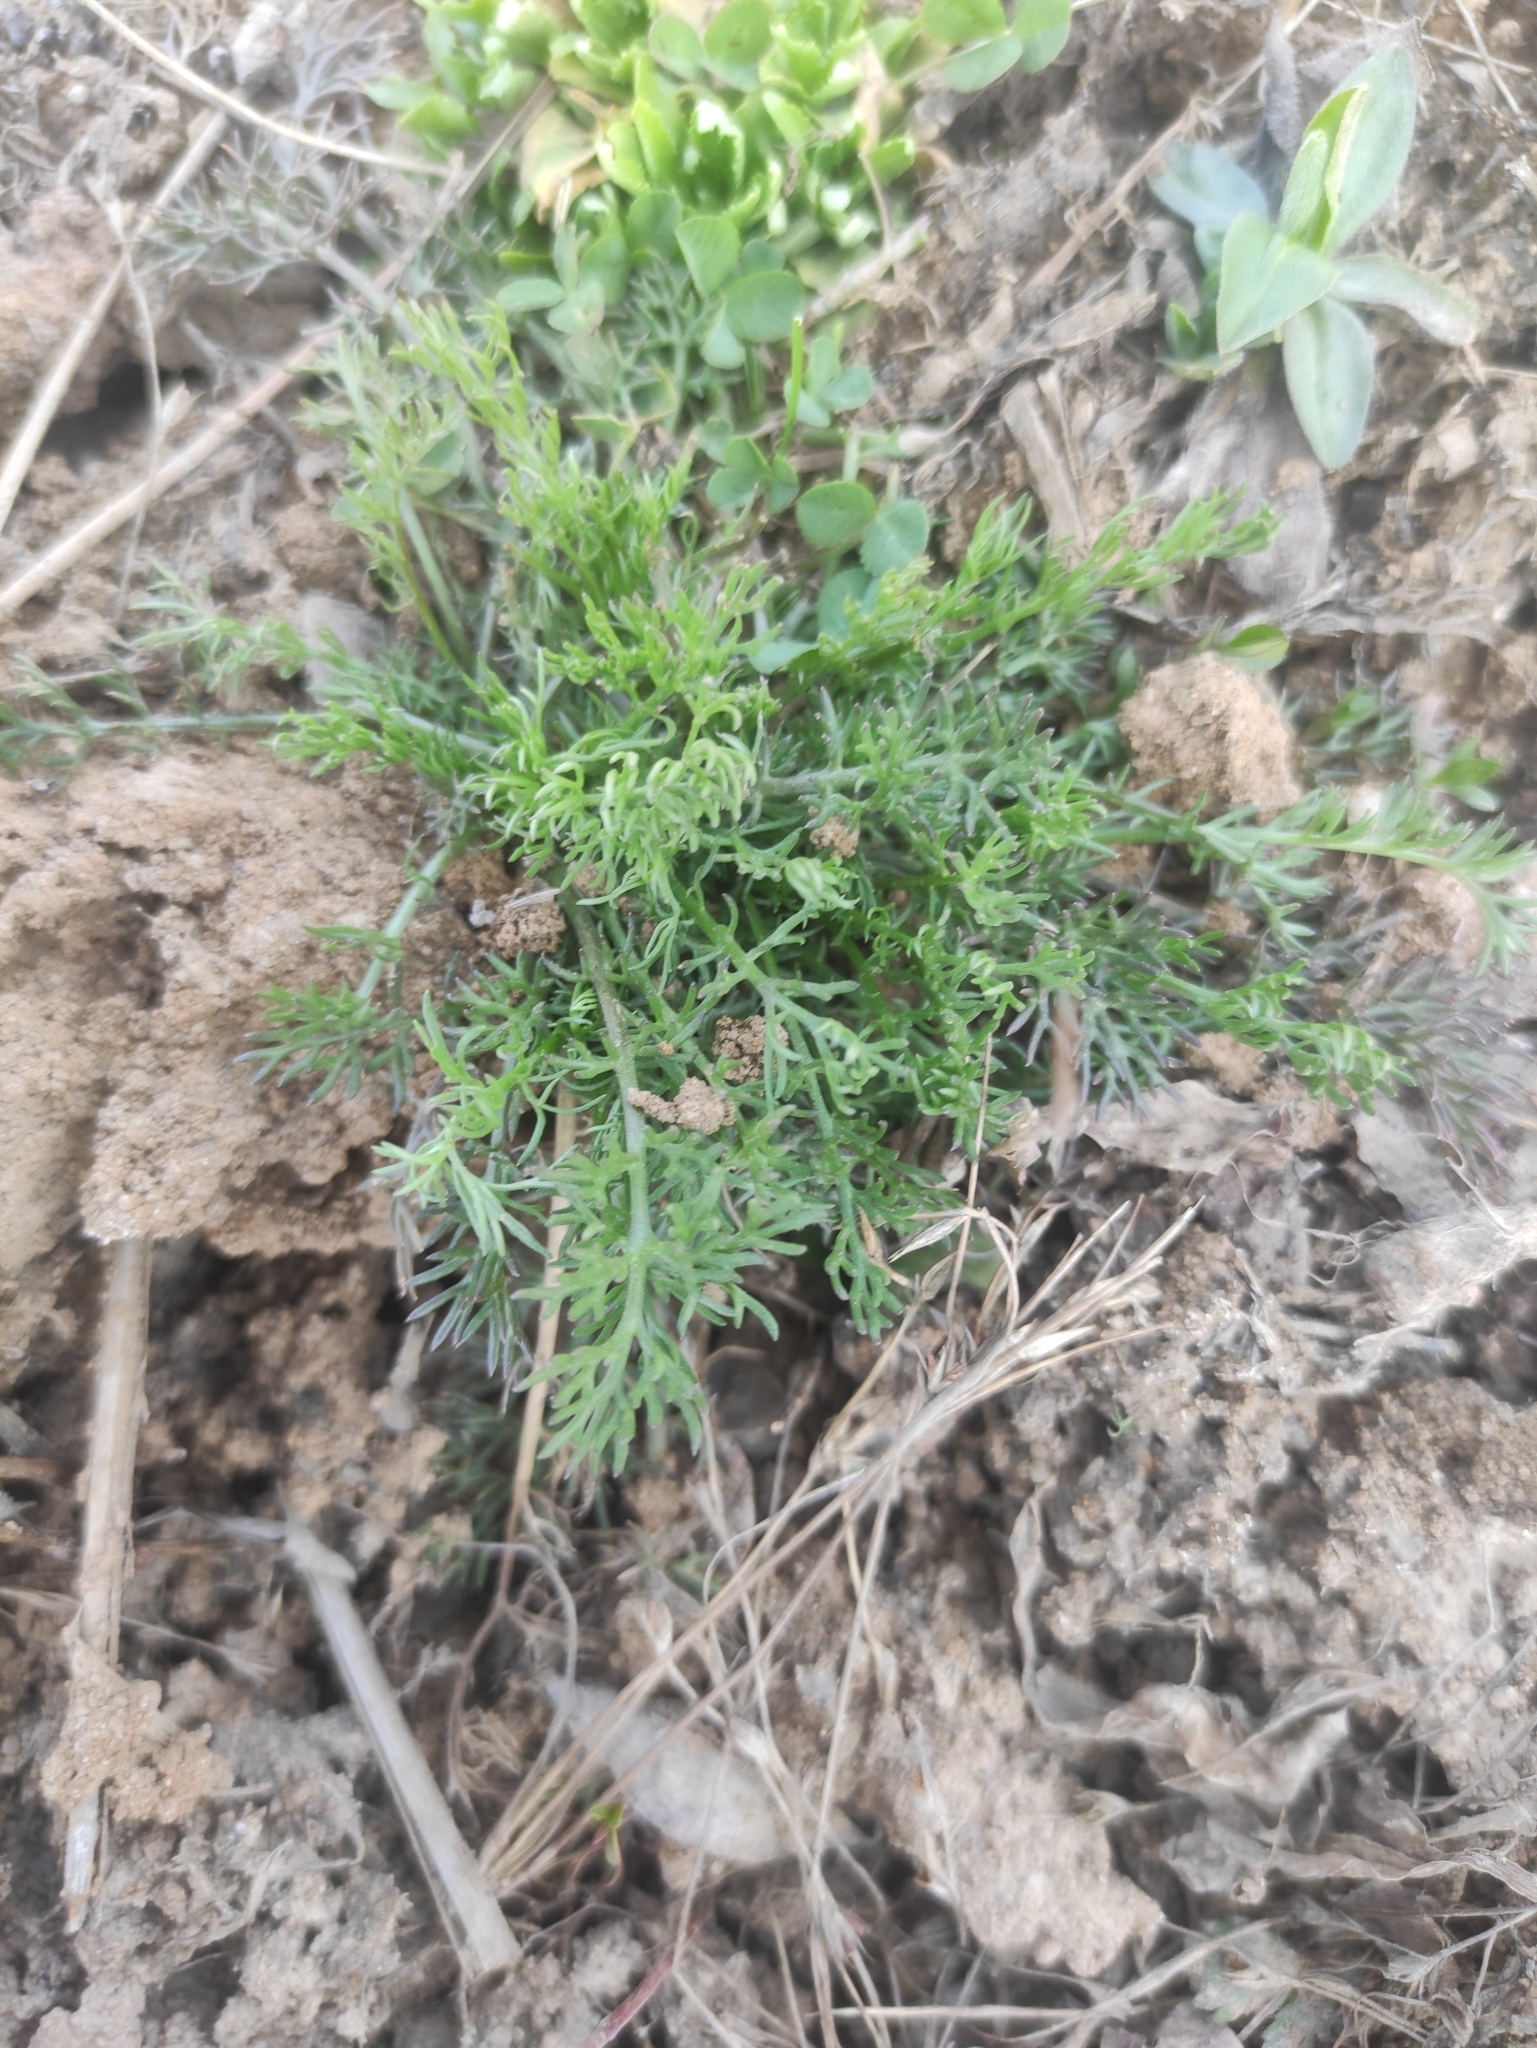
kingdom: Plantae
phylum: Tracheophyta
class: Magnoliopsida
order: Asterales
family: Asteraceae
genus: Tripleurospermum
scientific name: Tripleurospermum inodorum
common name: Scentless mayweed
